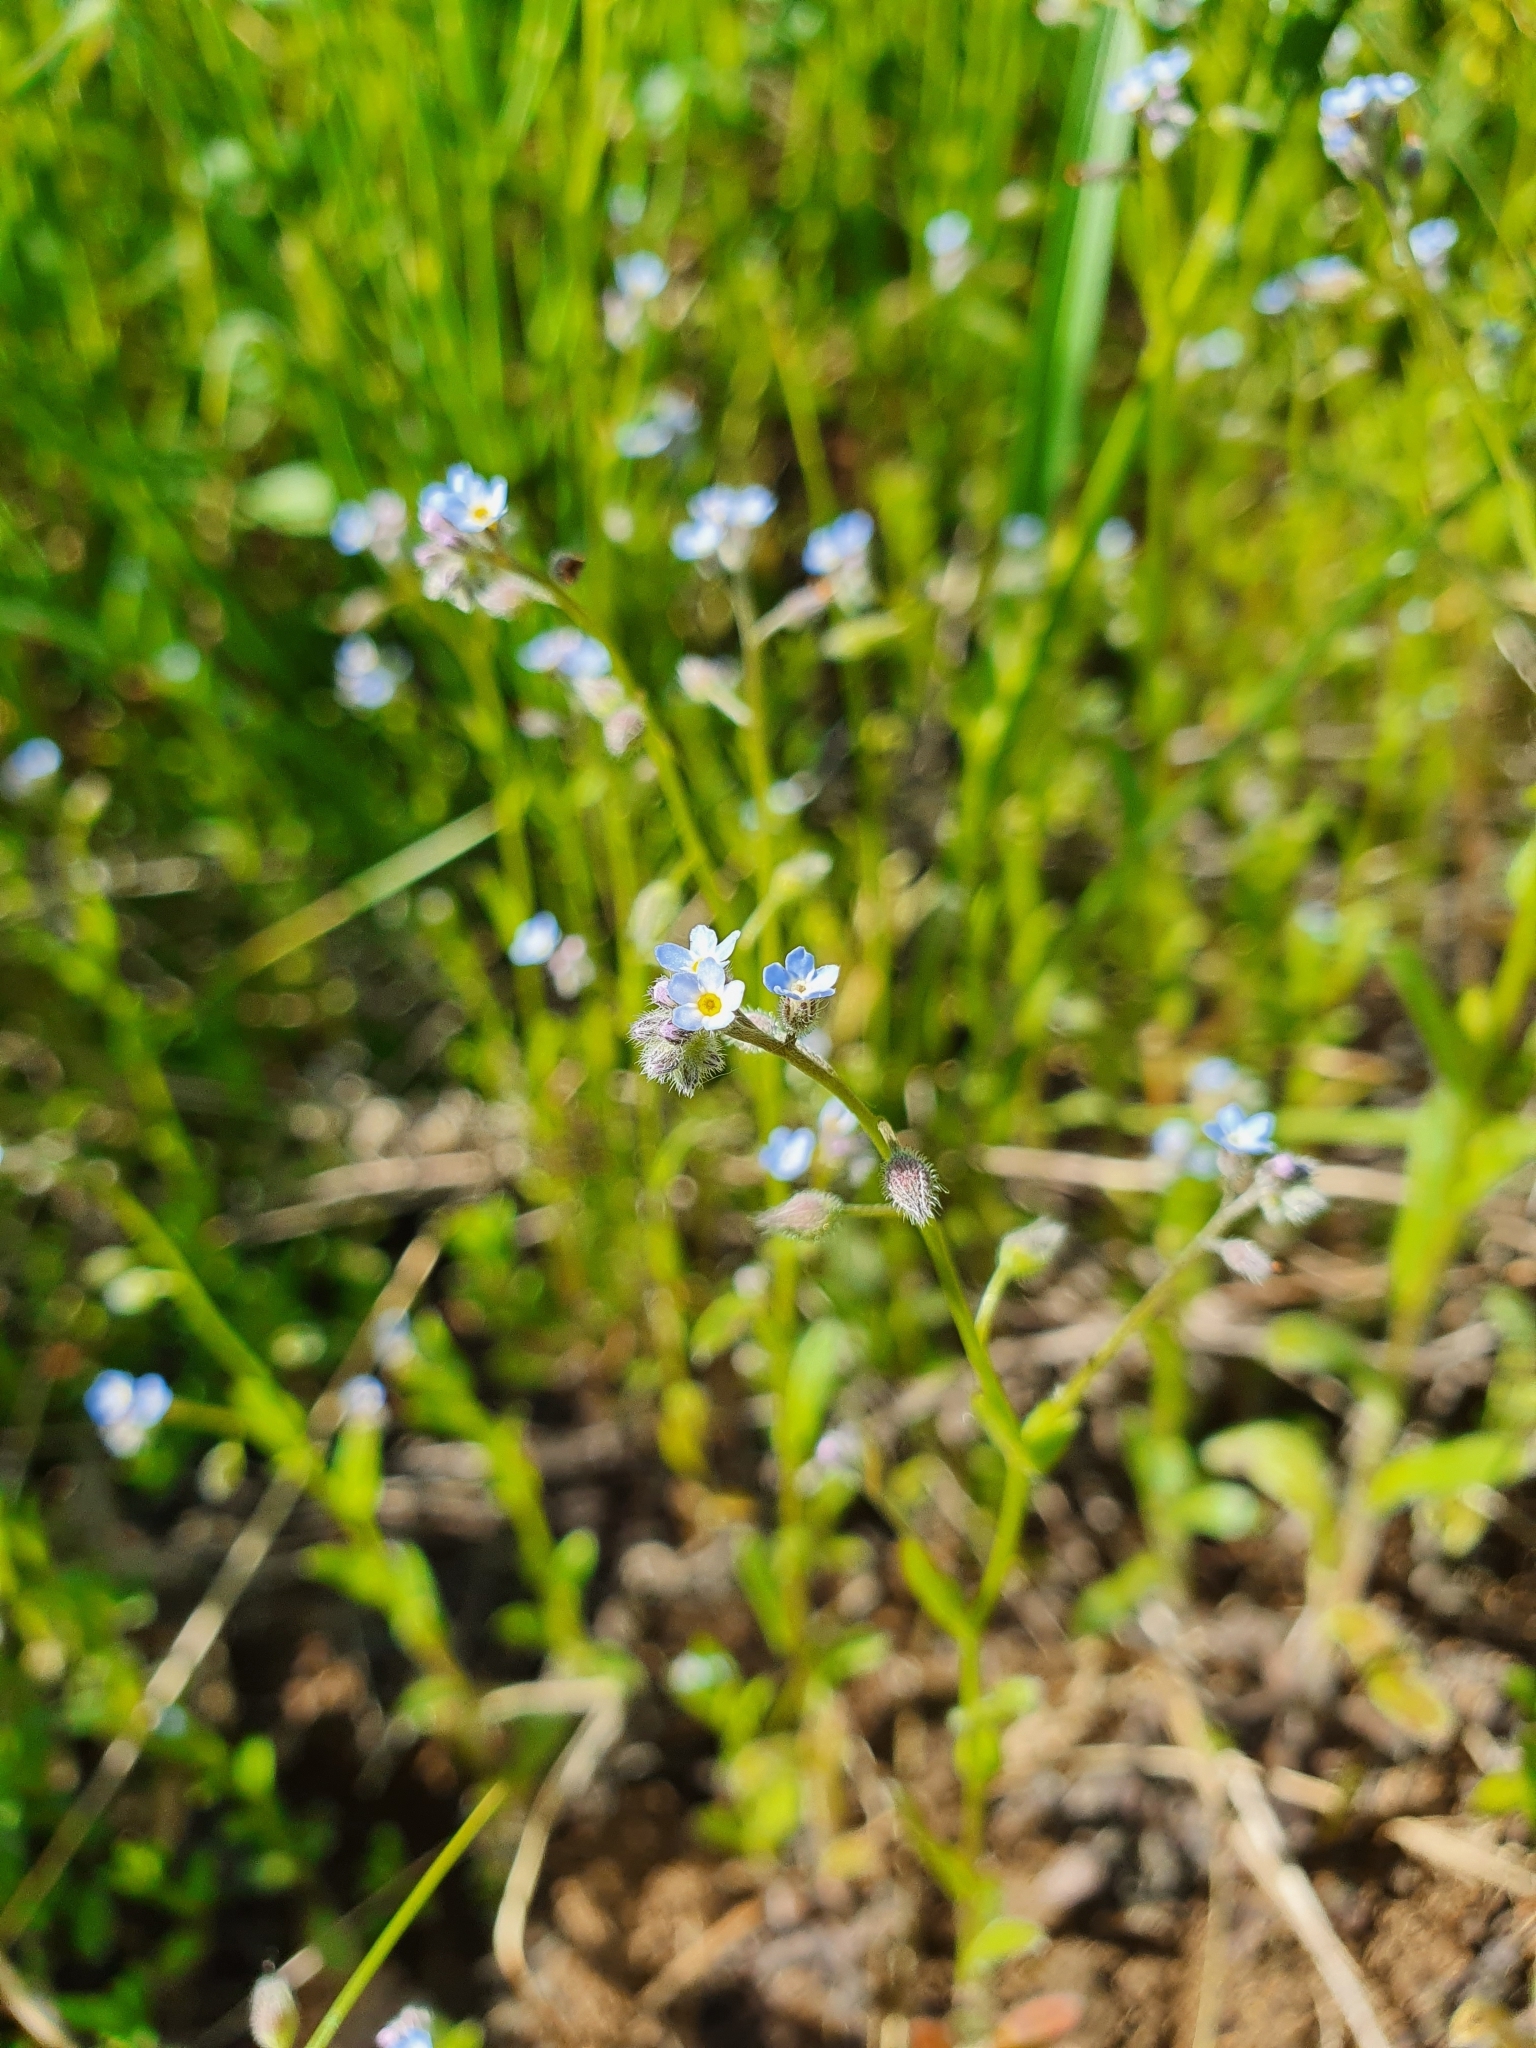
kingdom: Plantae
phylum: Tracheophyta
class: Magnoliopsida
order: Boraginales
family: Boraginaceae
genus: Myosotis
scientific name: Myosotis arvensis
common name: Field forget-me-not
